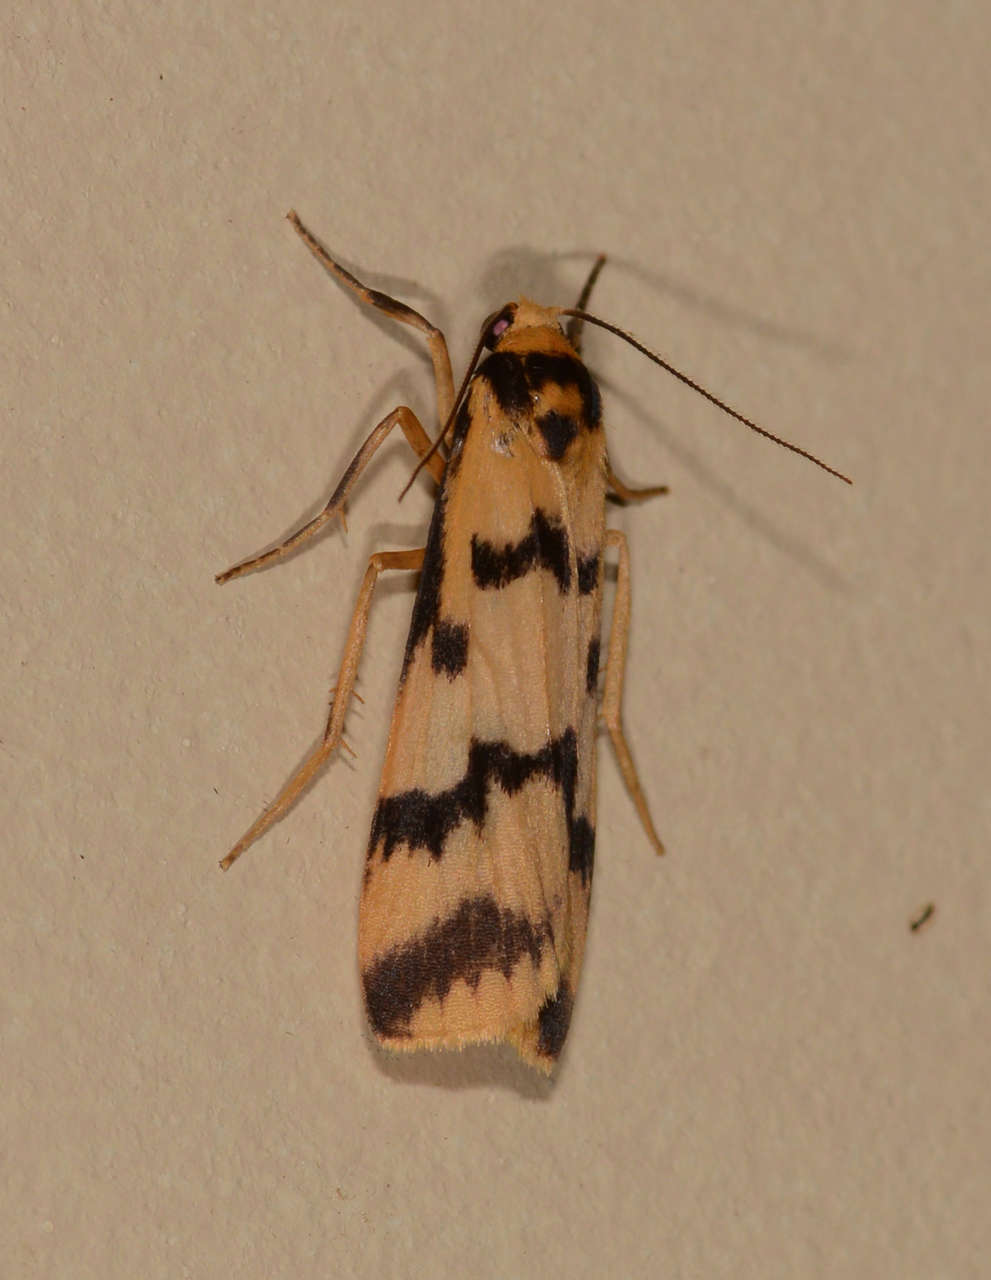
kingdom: Animalia
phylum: Arthropoda
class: Insecta
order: Lepidoptera
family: Erebidae
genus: Tigrioides
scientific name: Tigrioides alterna
